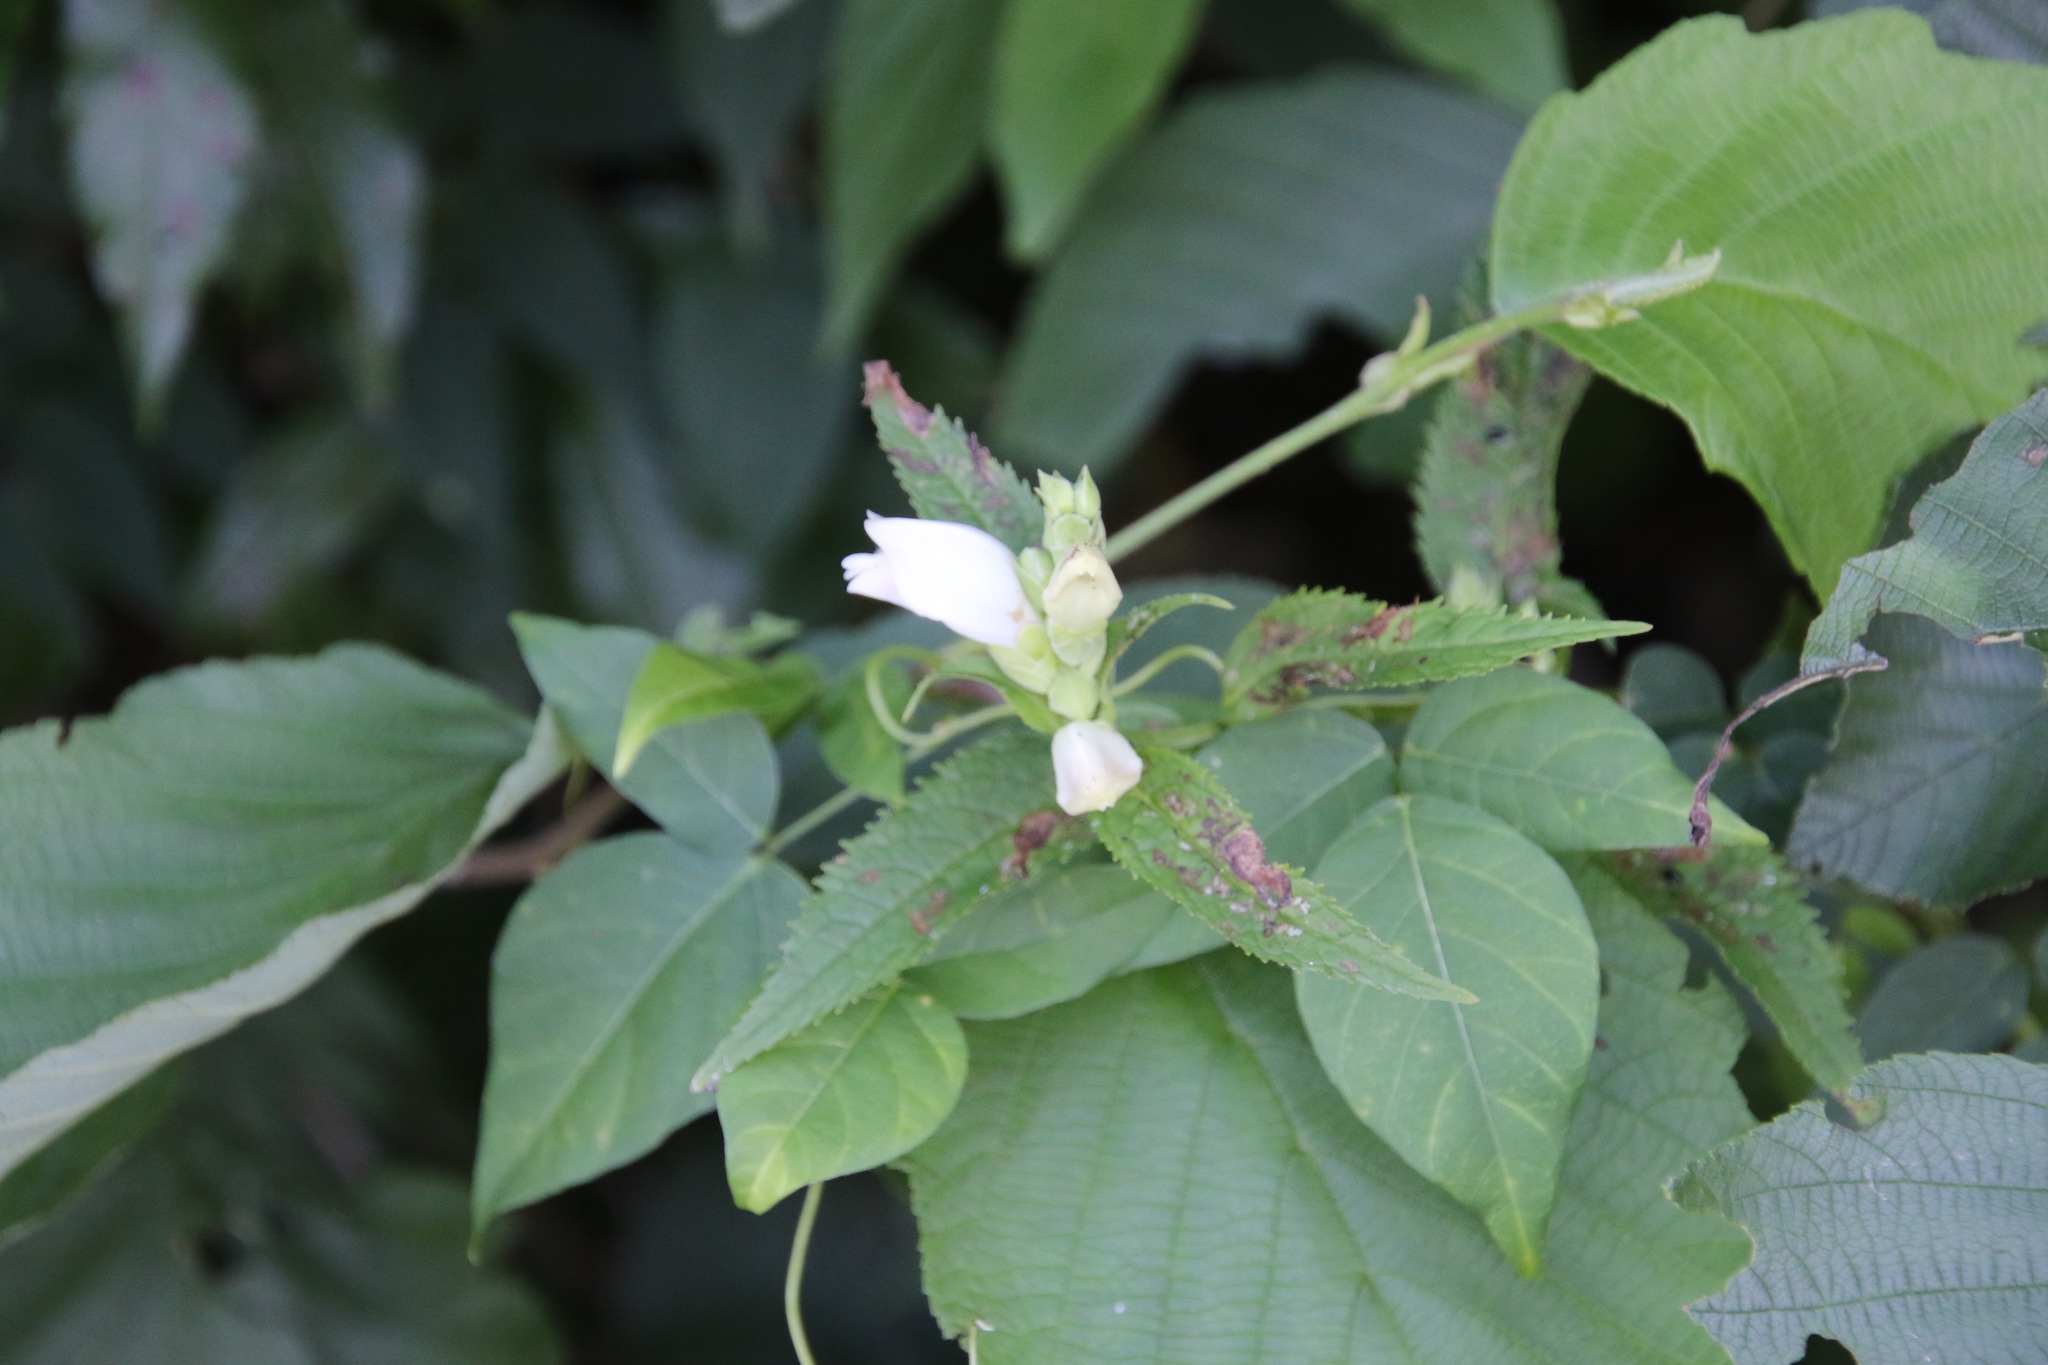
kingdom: Plantae
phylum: Tracheophyta
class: Magnoliopsida
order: Lamiales
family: Plantaginaceae
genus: Chelone
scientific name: Chelone glabra
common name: Snakehead
